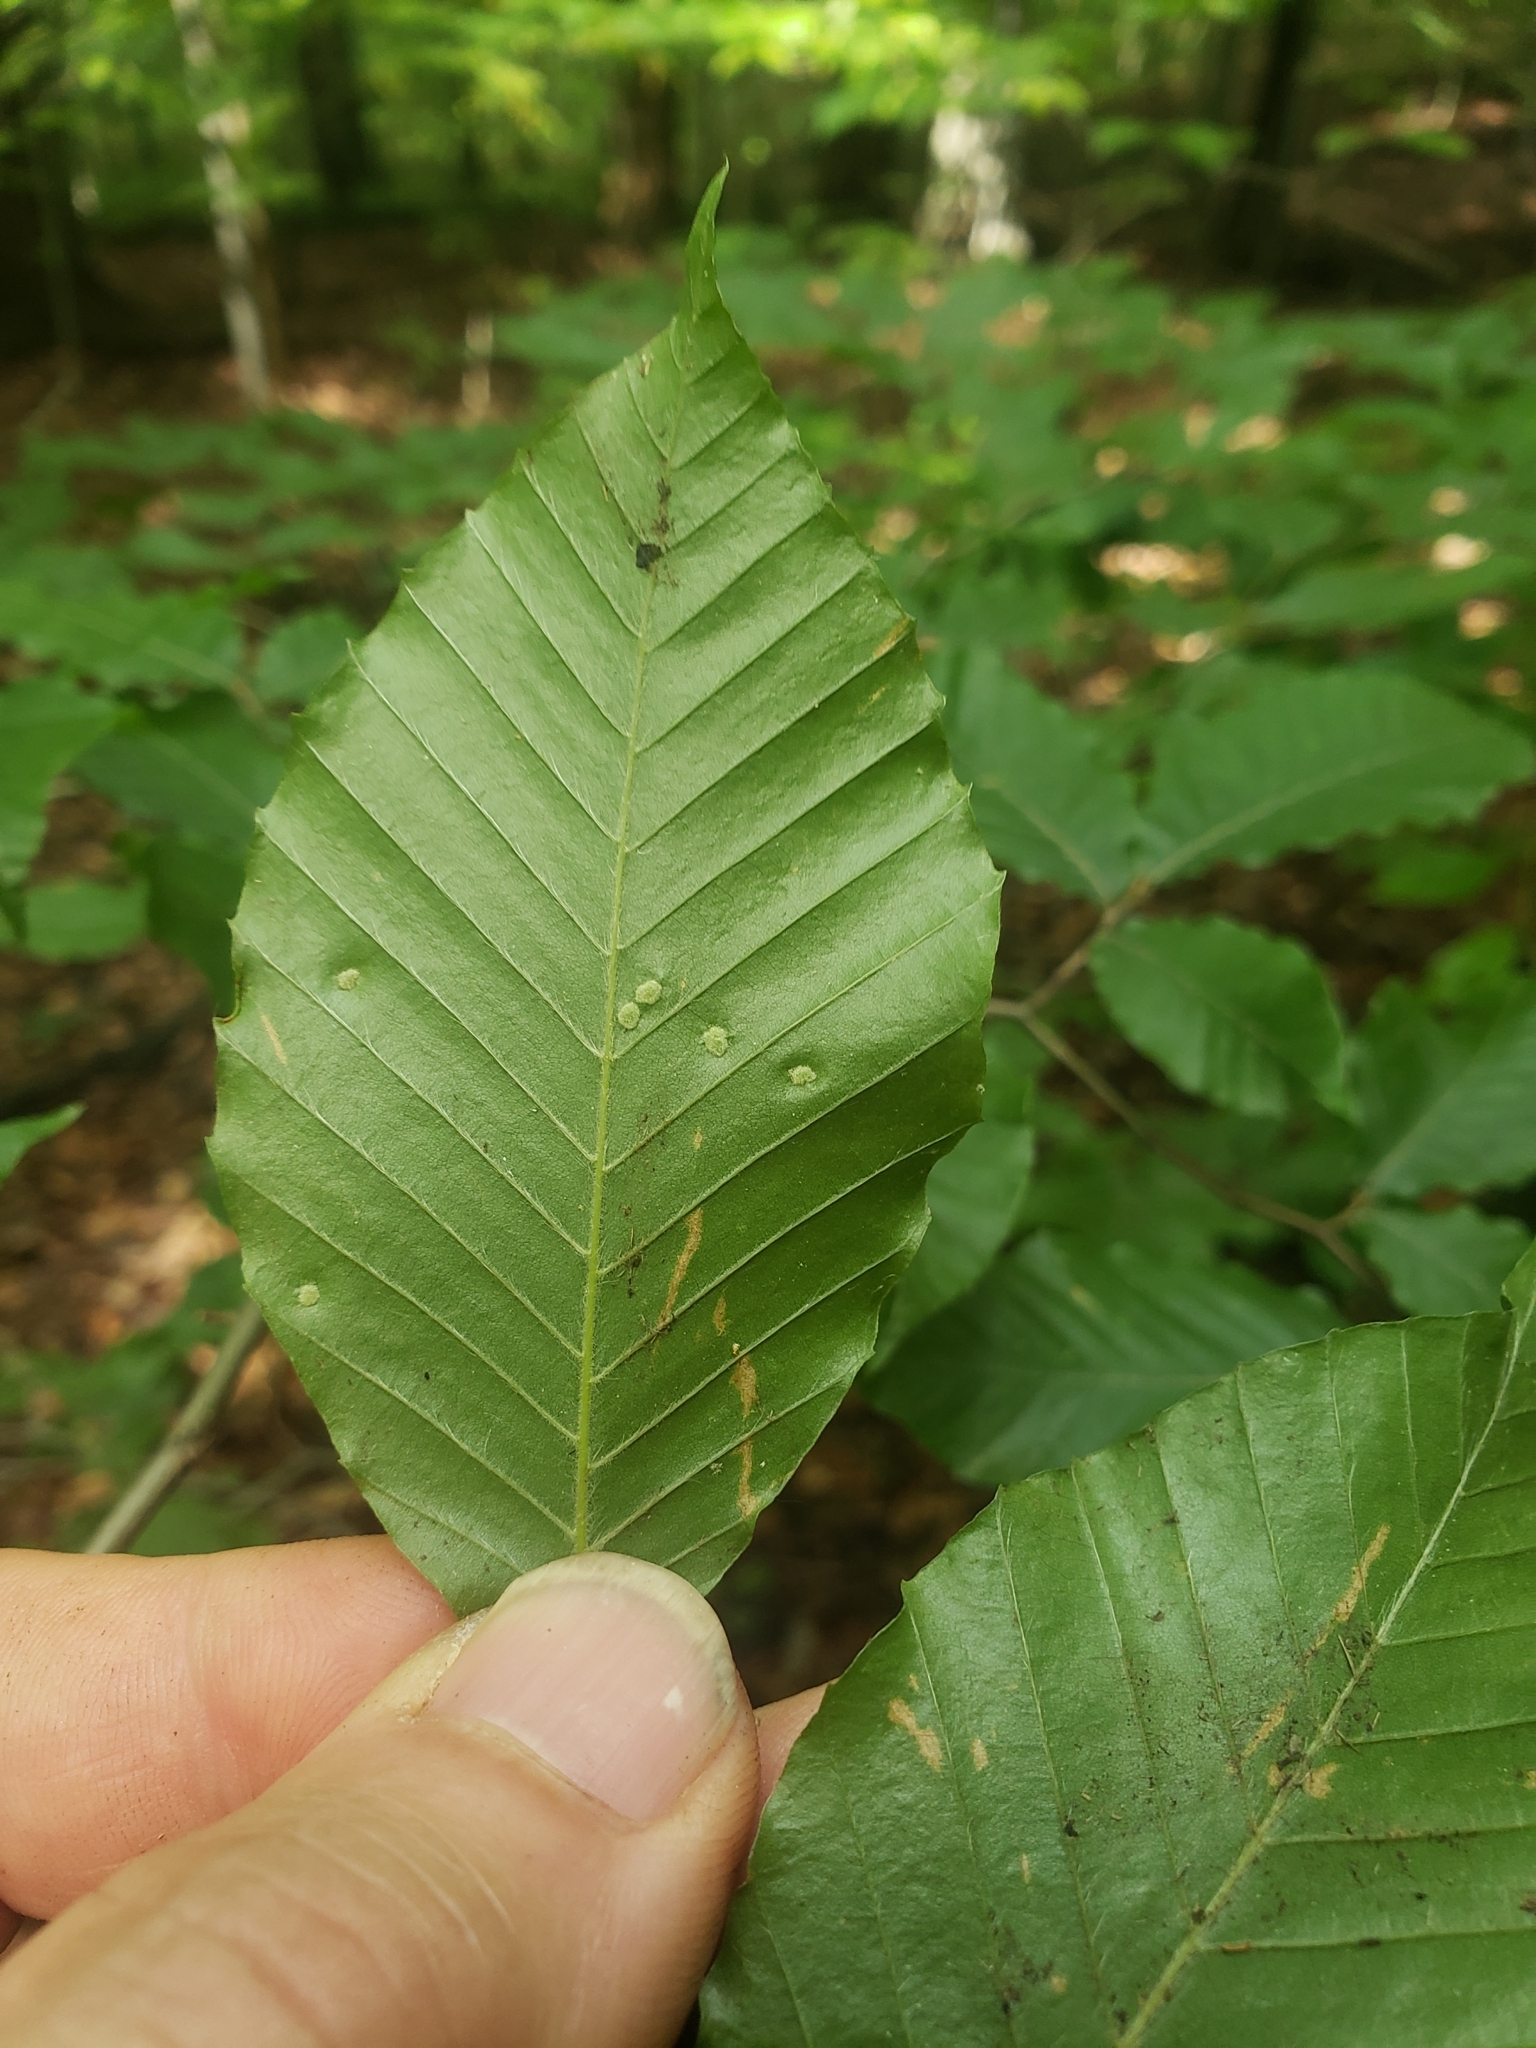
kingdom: Animalia
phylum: Arthropoda
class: Arachnida
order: Trombidiformes
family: Eriophyidae
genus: Acalitus
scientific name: Acalitus
